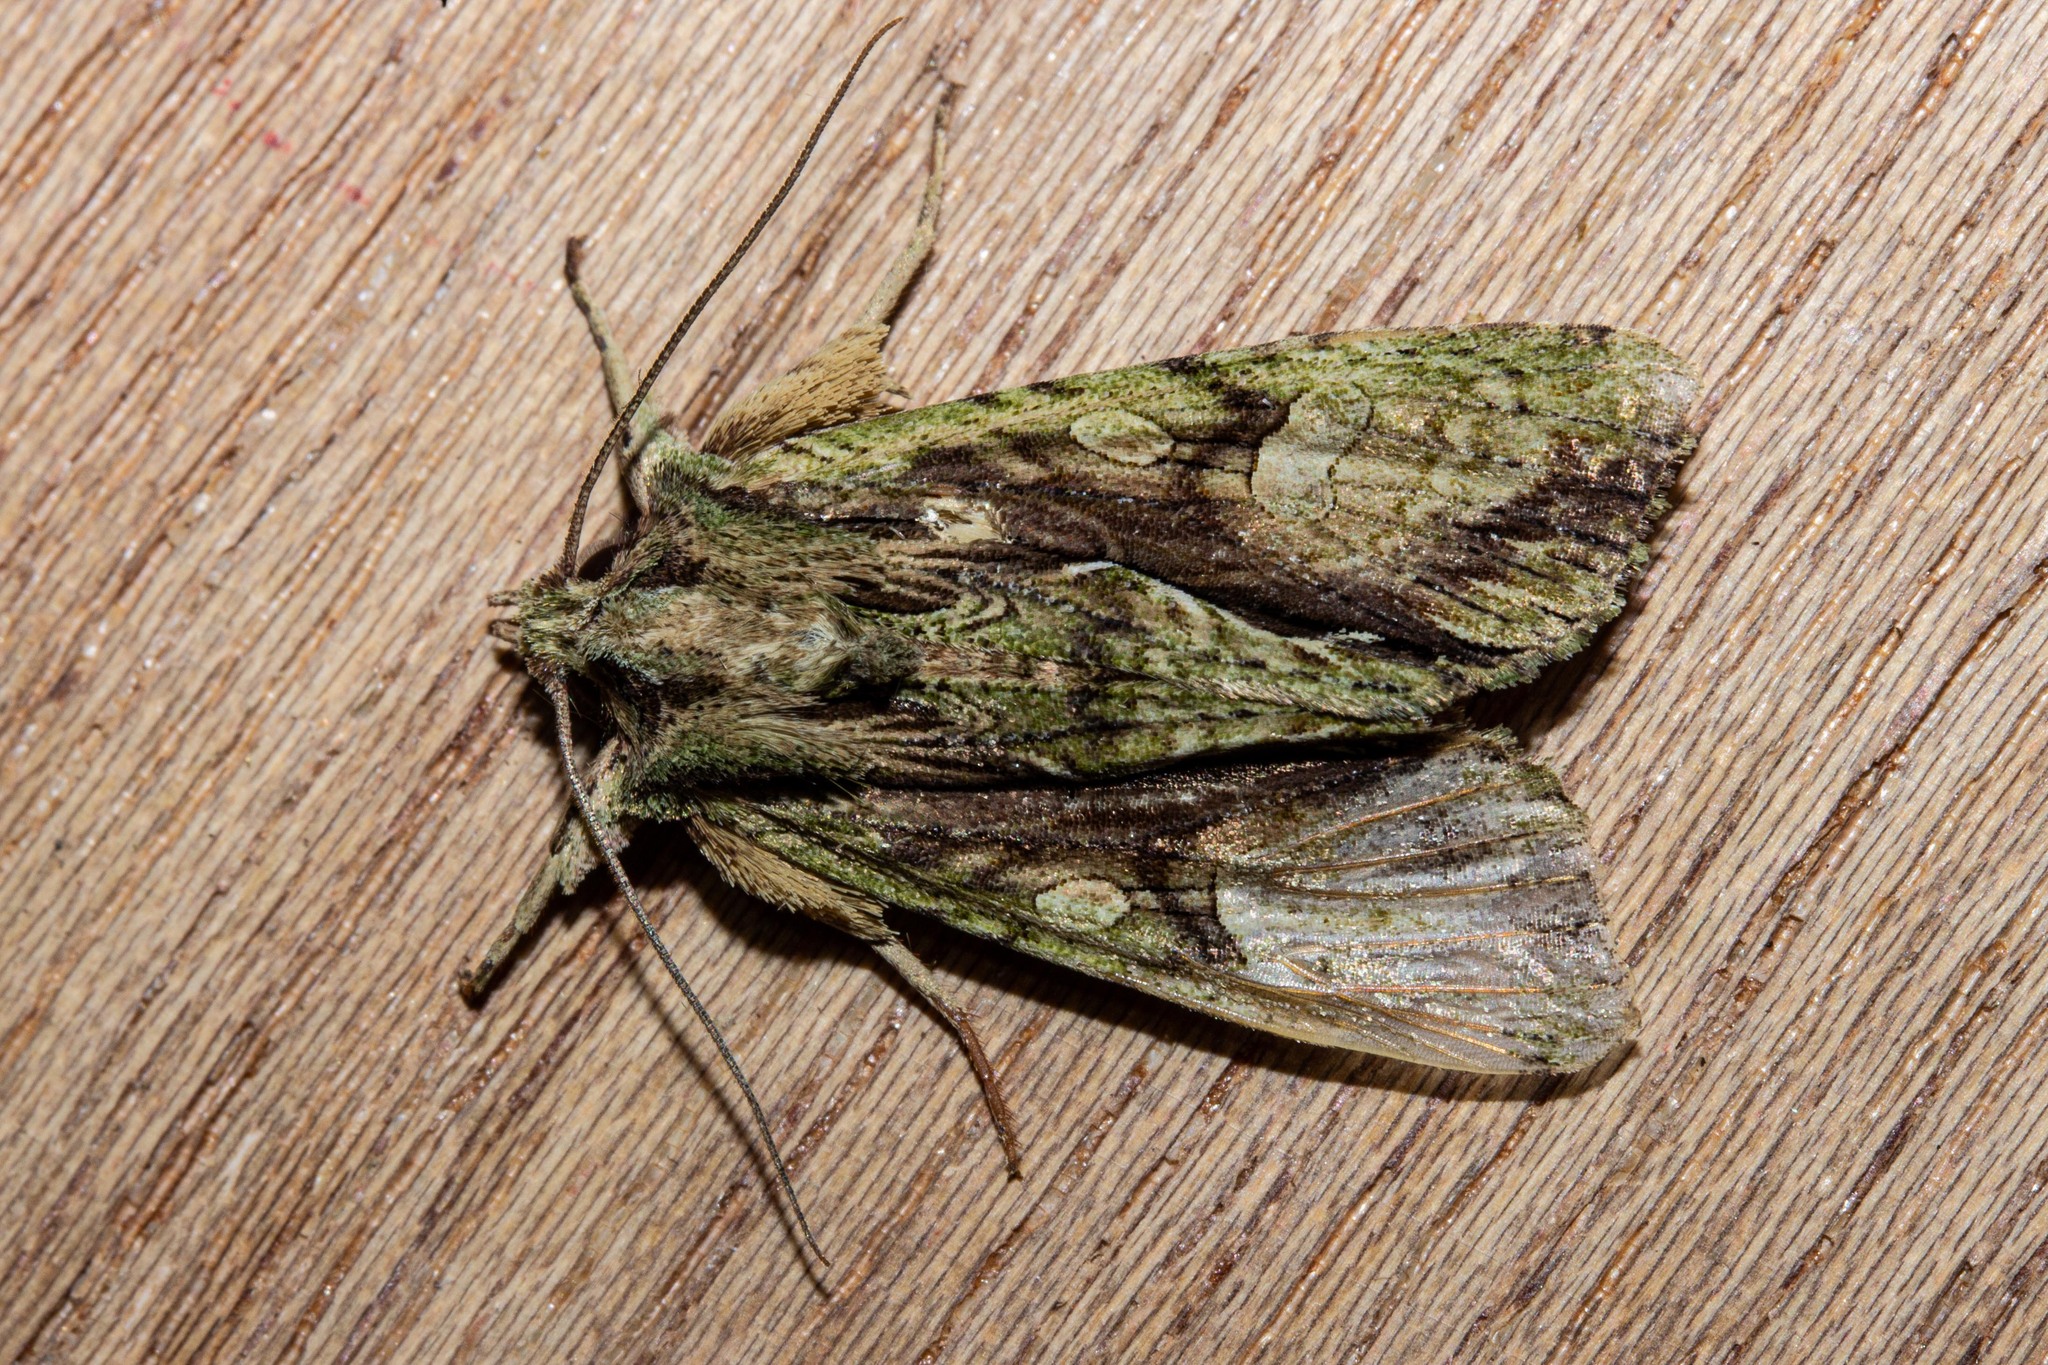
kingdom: Animalia
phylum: Arthropoda
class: Insecta
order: Lepidoptera
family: Noctuidae
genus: Meterana
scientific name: Meterana decorata
